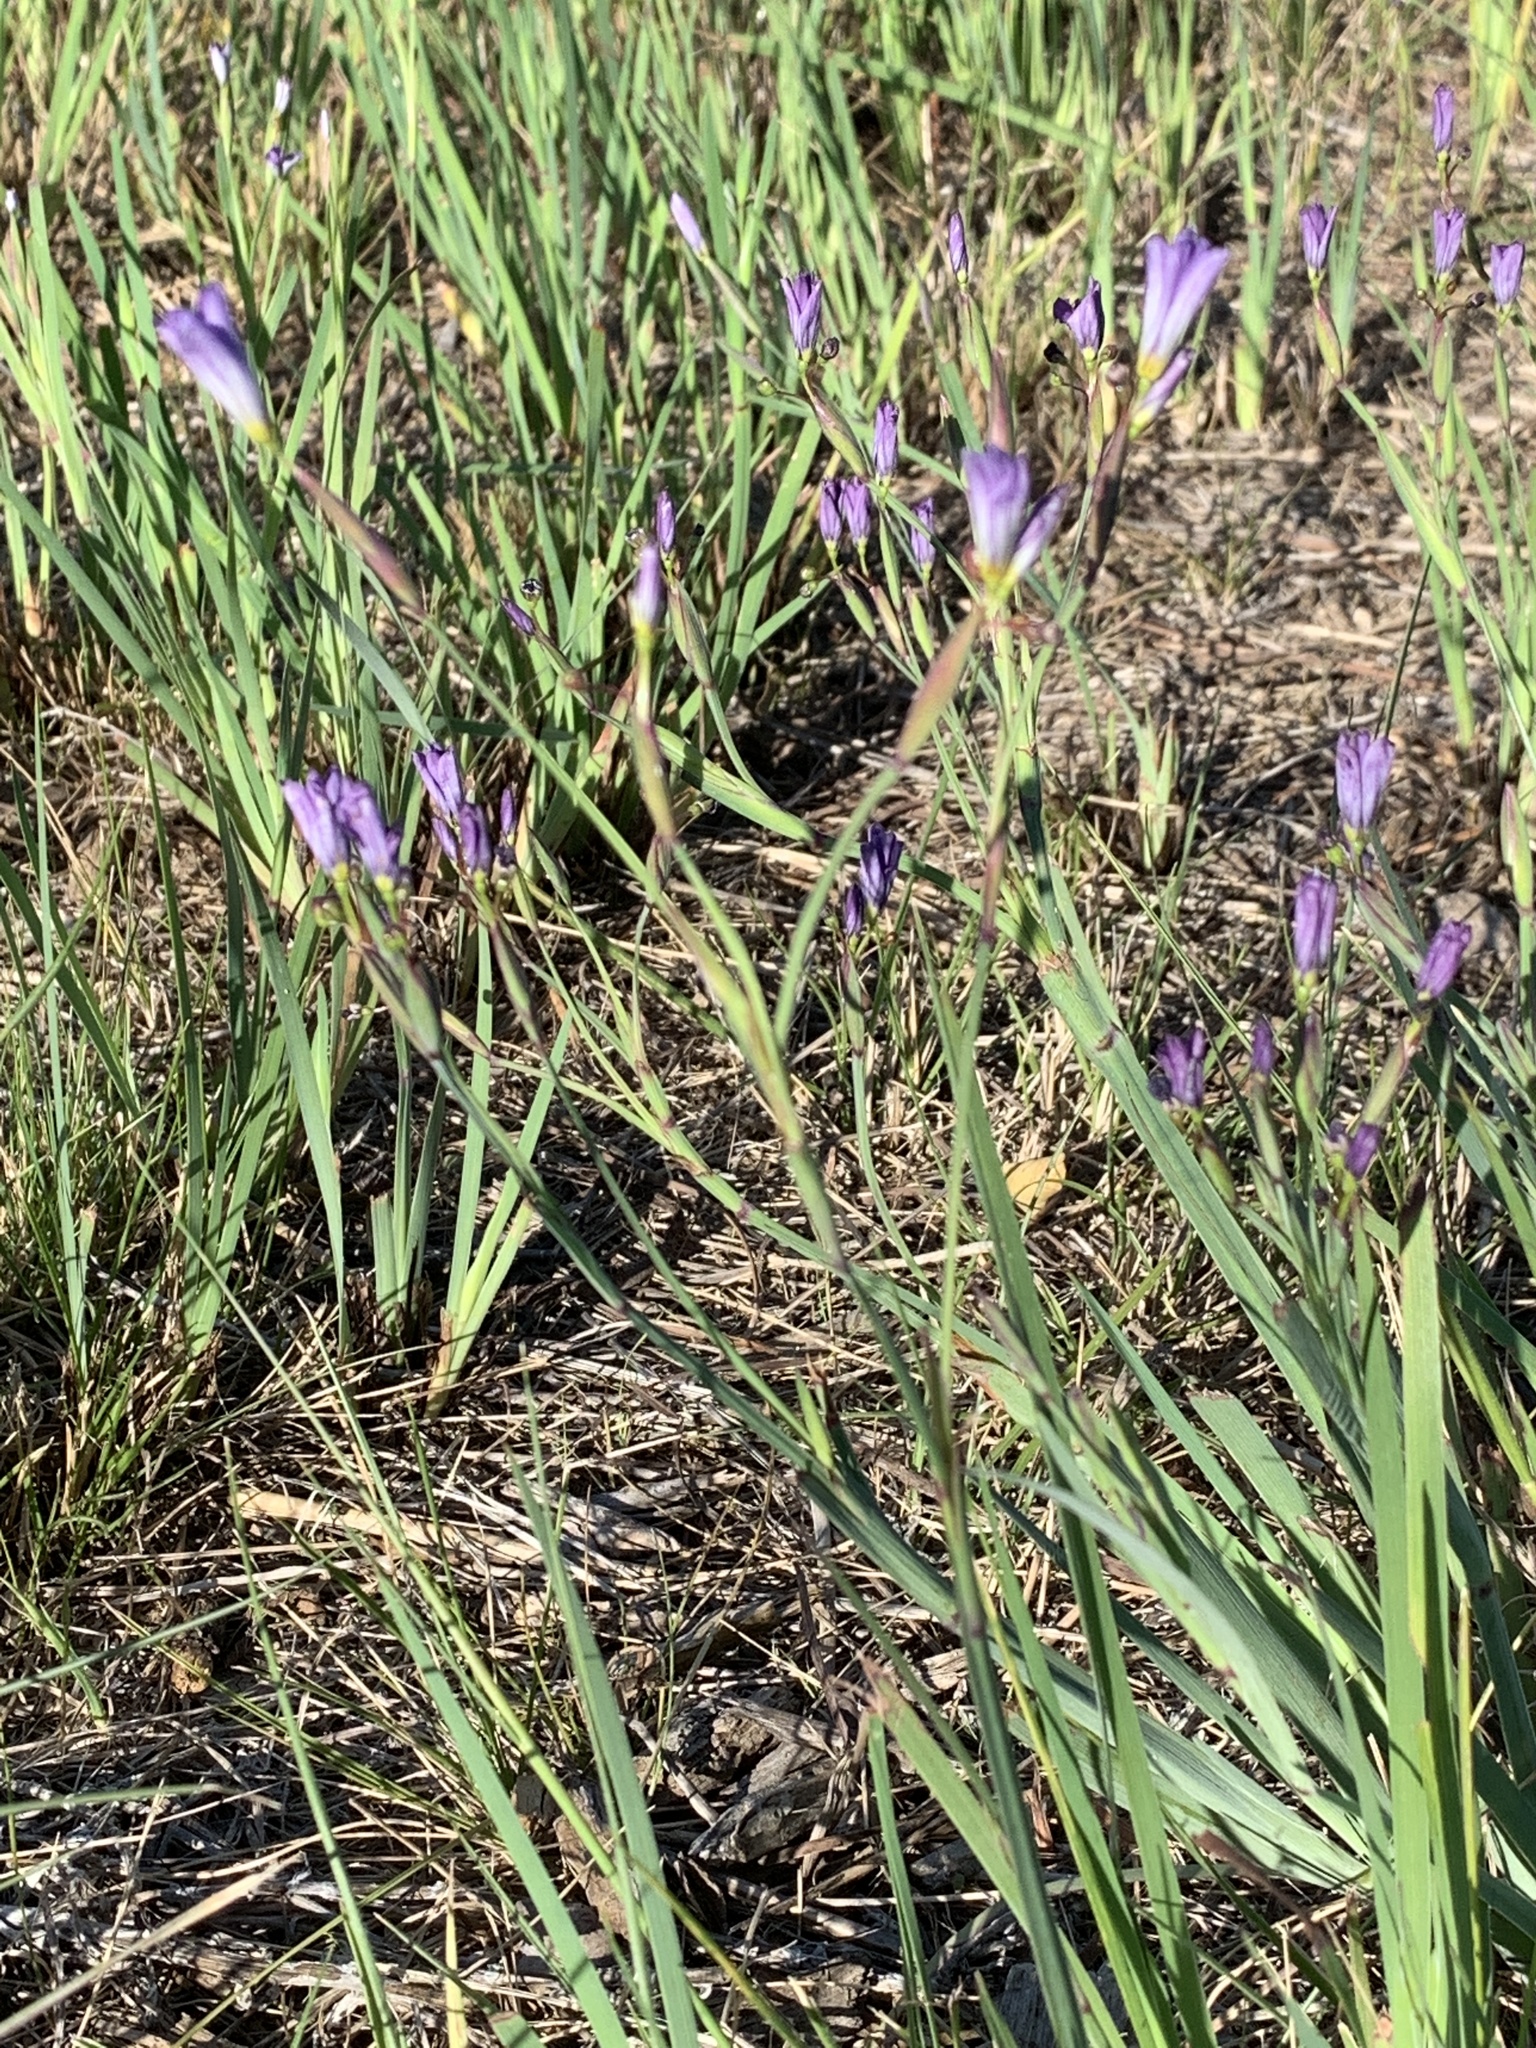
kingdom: Plantae
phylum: Tracheophyta
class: Liliopsida
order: Asparagales
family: Iridaceae
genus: Sisyrinchium
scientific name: Sisyrinchium bellum
